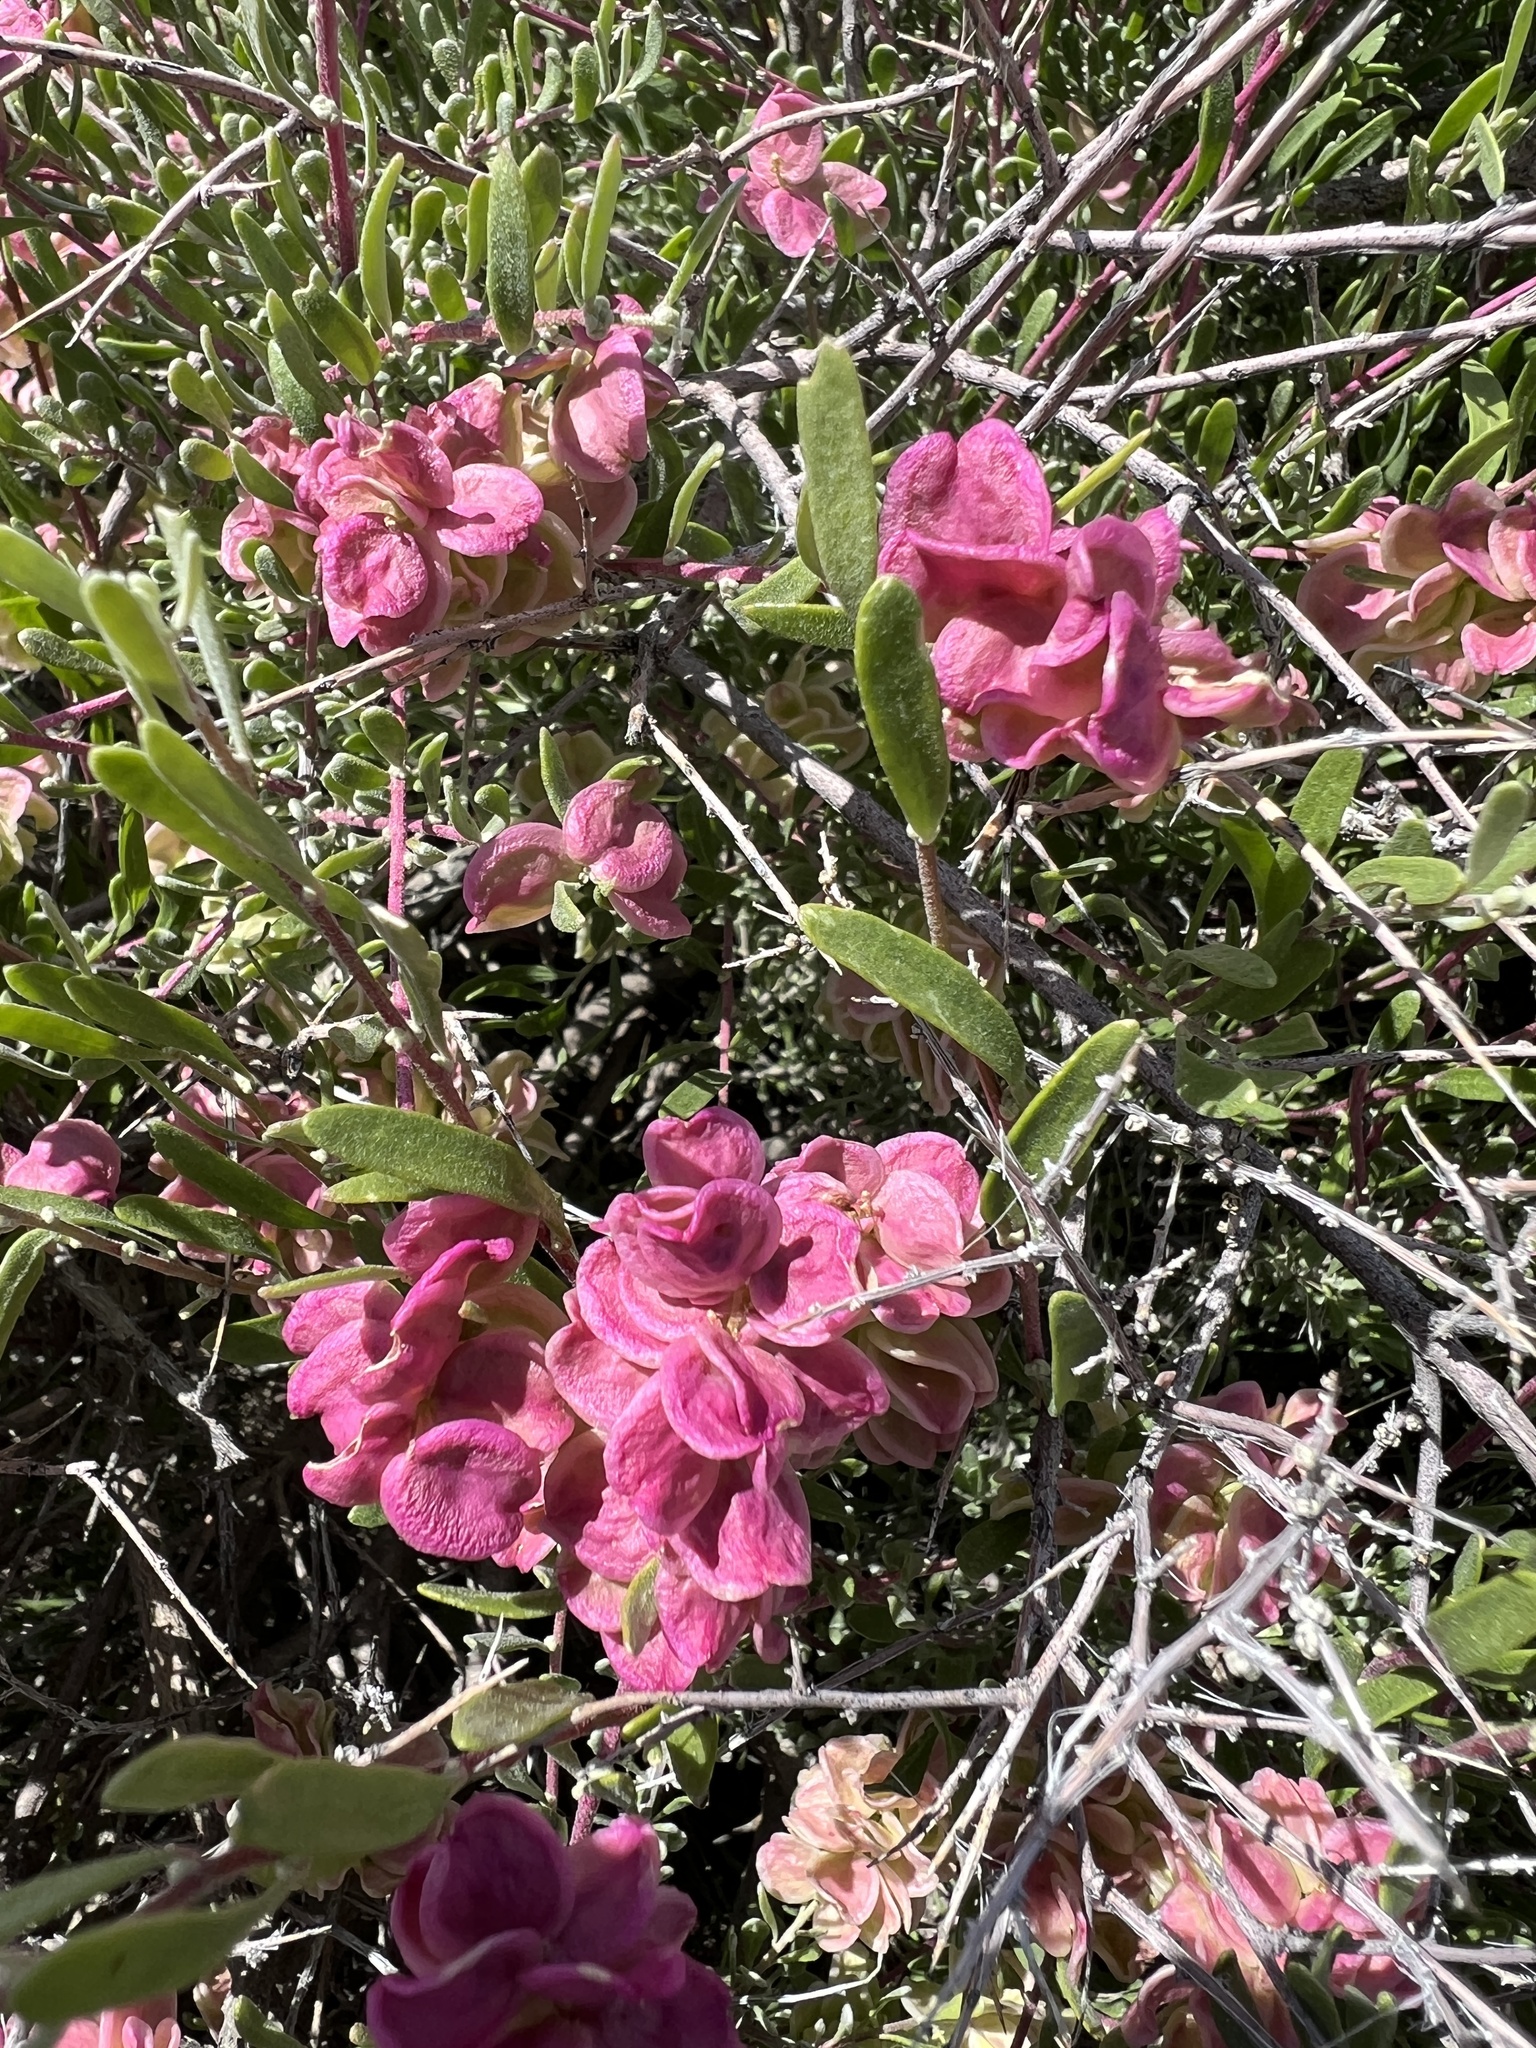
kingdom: Plantae
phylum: Tracheophyta
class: Magnoliopsida
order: Caryophyllales
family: Amaranthaceae
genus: Grayia
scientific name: Grayia spinosa
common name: Spiny hopsage
